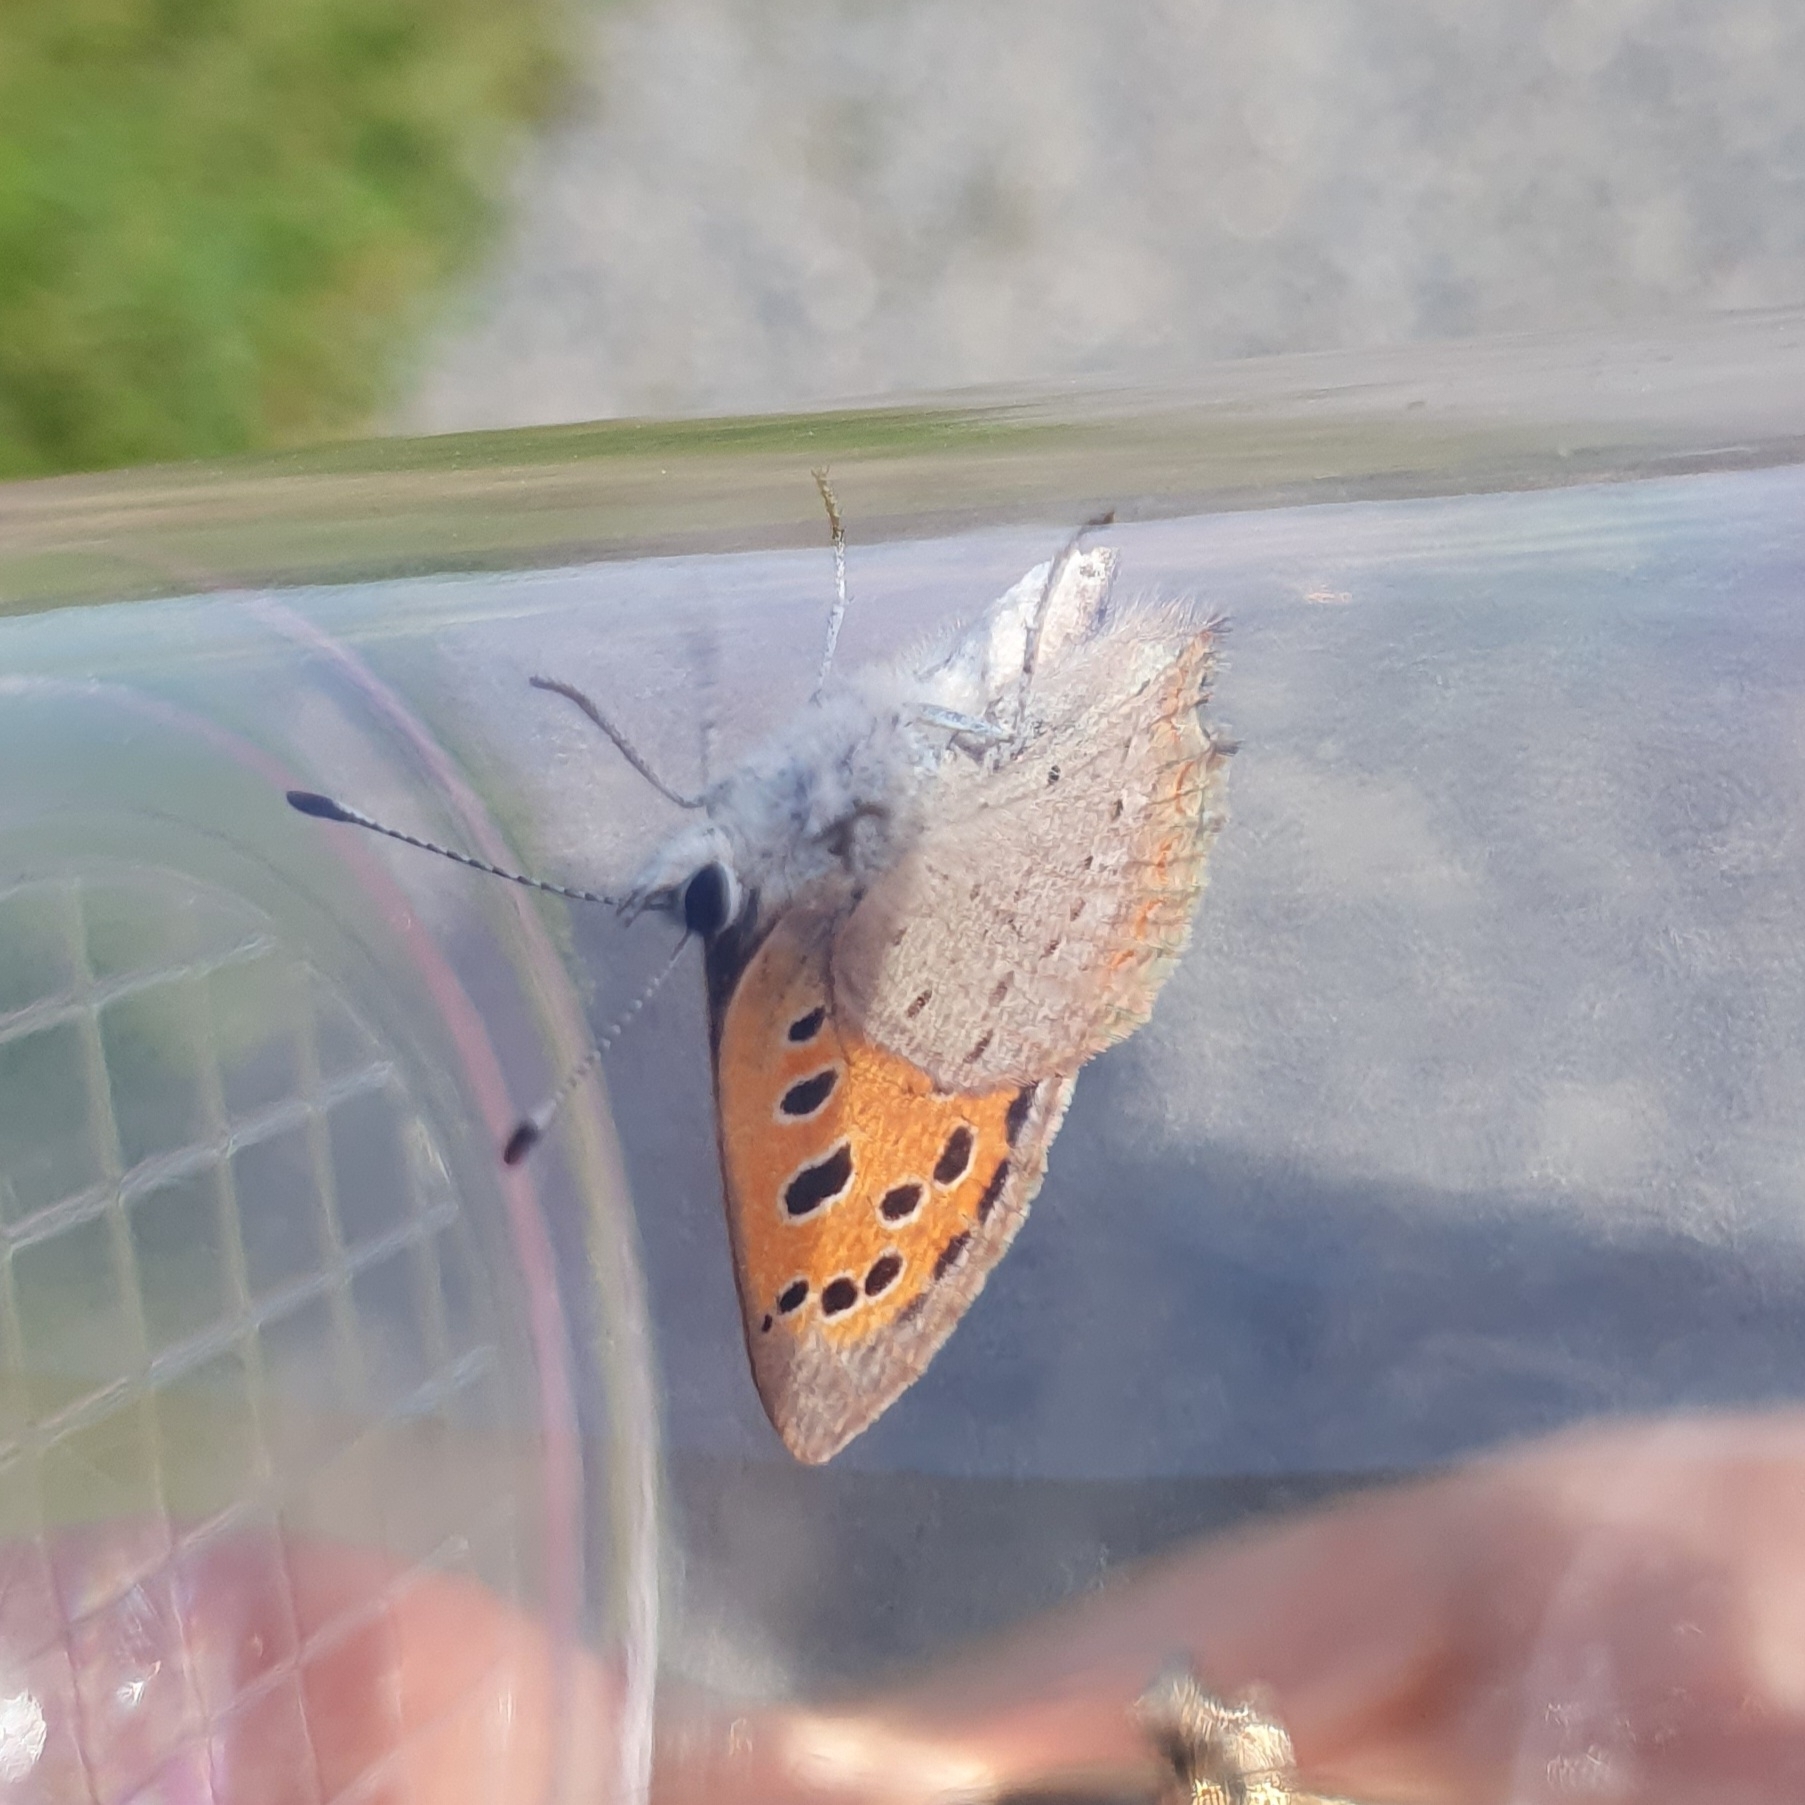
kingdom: Animalia
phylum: Arthropoda
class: Insecta
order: Lepidoptera
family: Lycaenidae
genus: Lycaena
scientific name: Lycaena phlaeas
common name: Small copper
